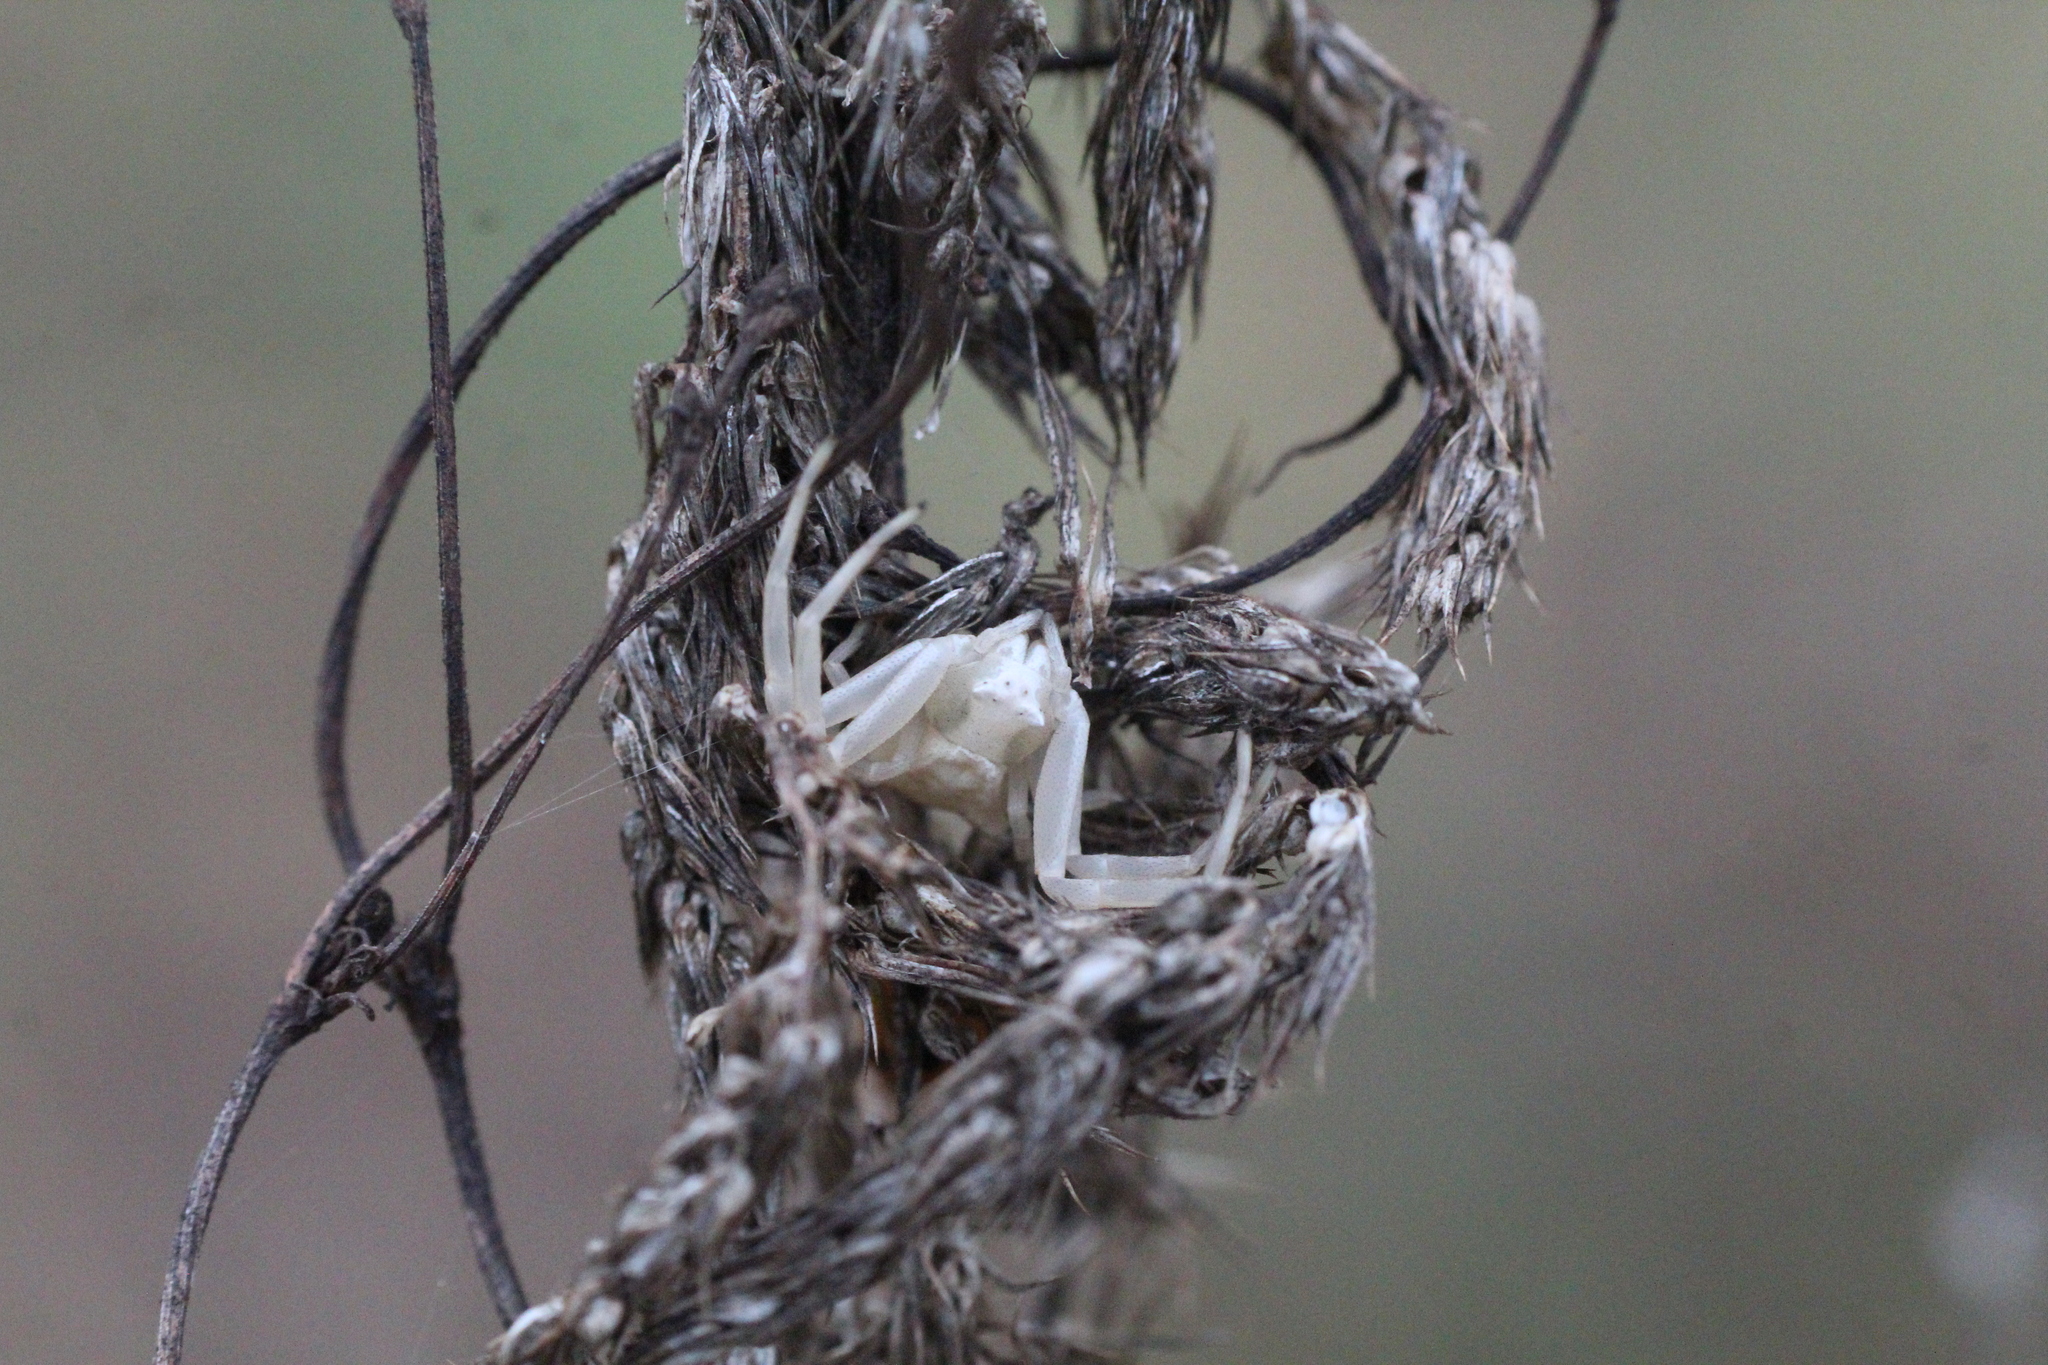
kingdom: Animalia
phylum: Arthropoda
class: Arachnida
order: Araneae
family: Thomisidae
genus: Thomisus
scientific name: Thomisus onustus
